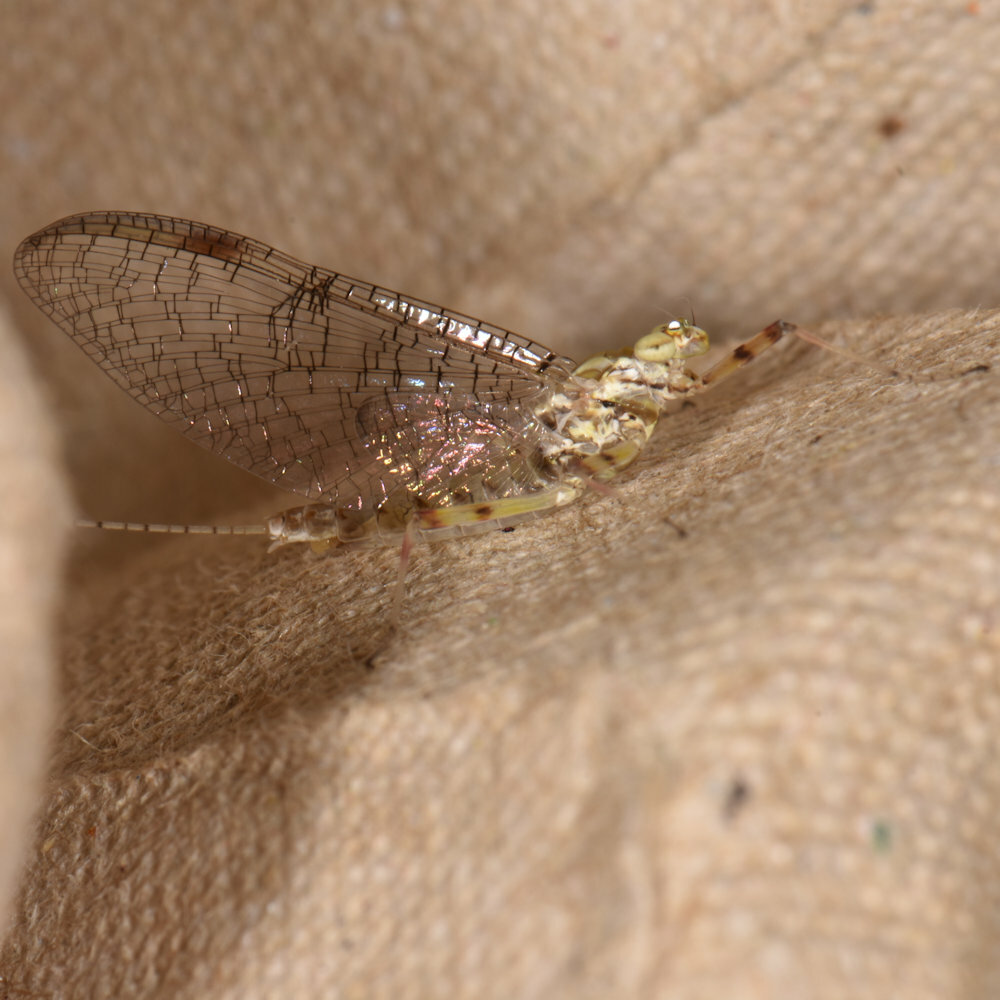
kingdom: Animalia
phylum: Arthropoda
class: Insecta
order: Ephemeroptera
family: Heptageniidae
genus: Stenonema
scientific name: Stenonema femoratum
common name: Dark cahill
